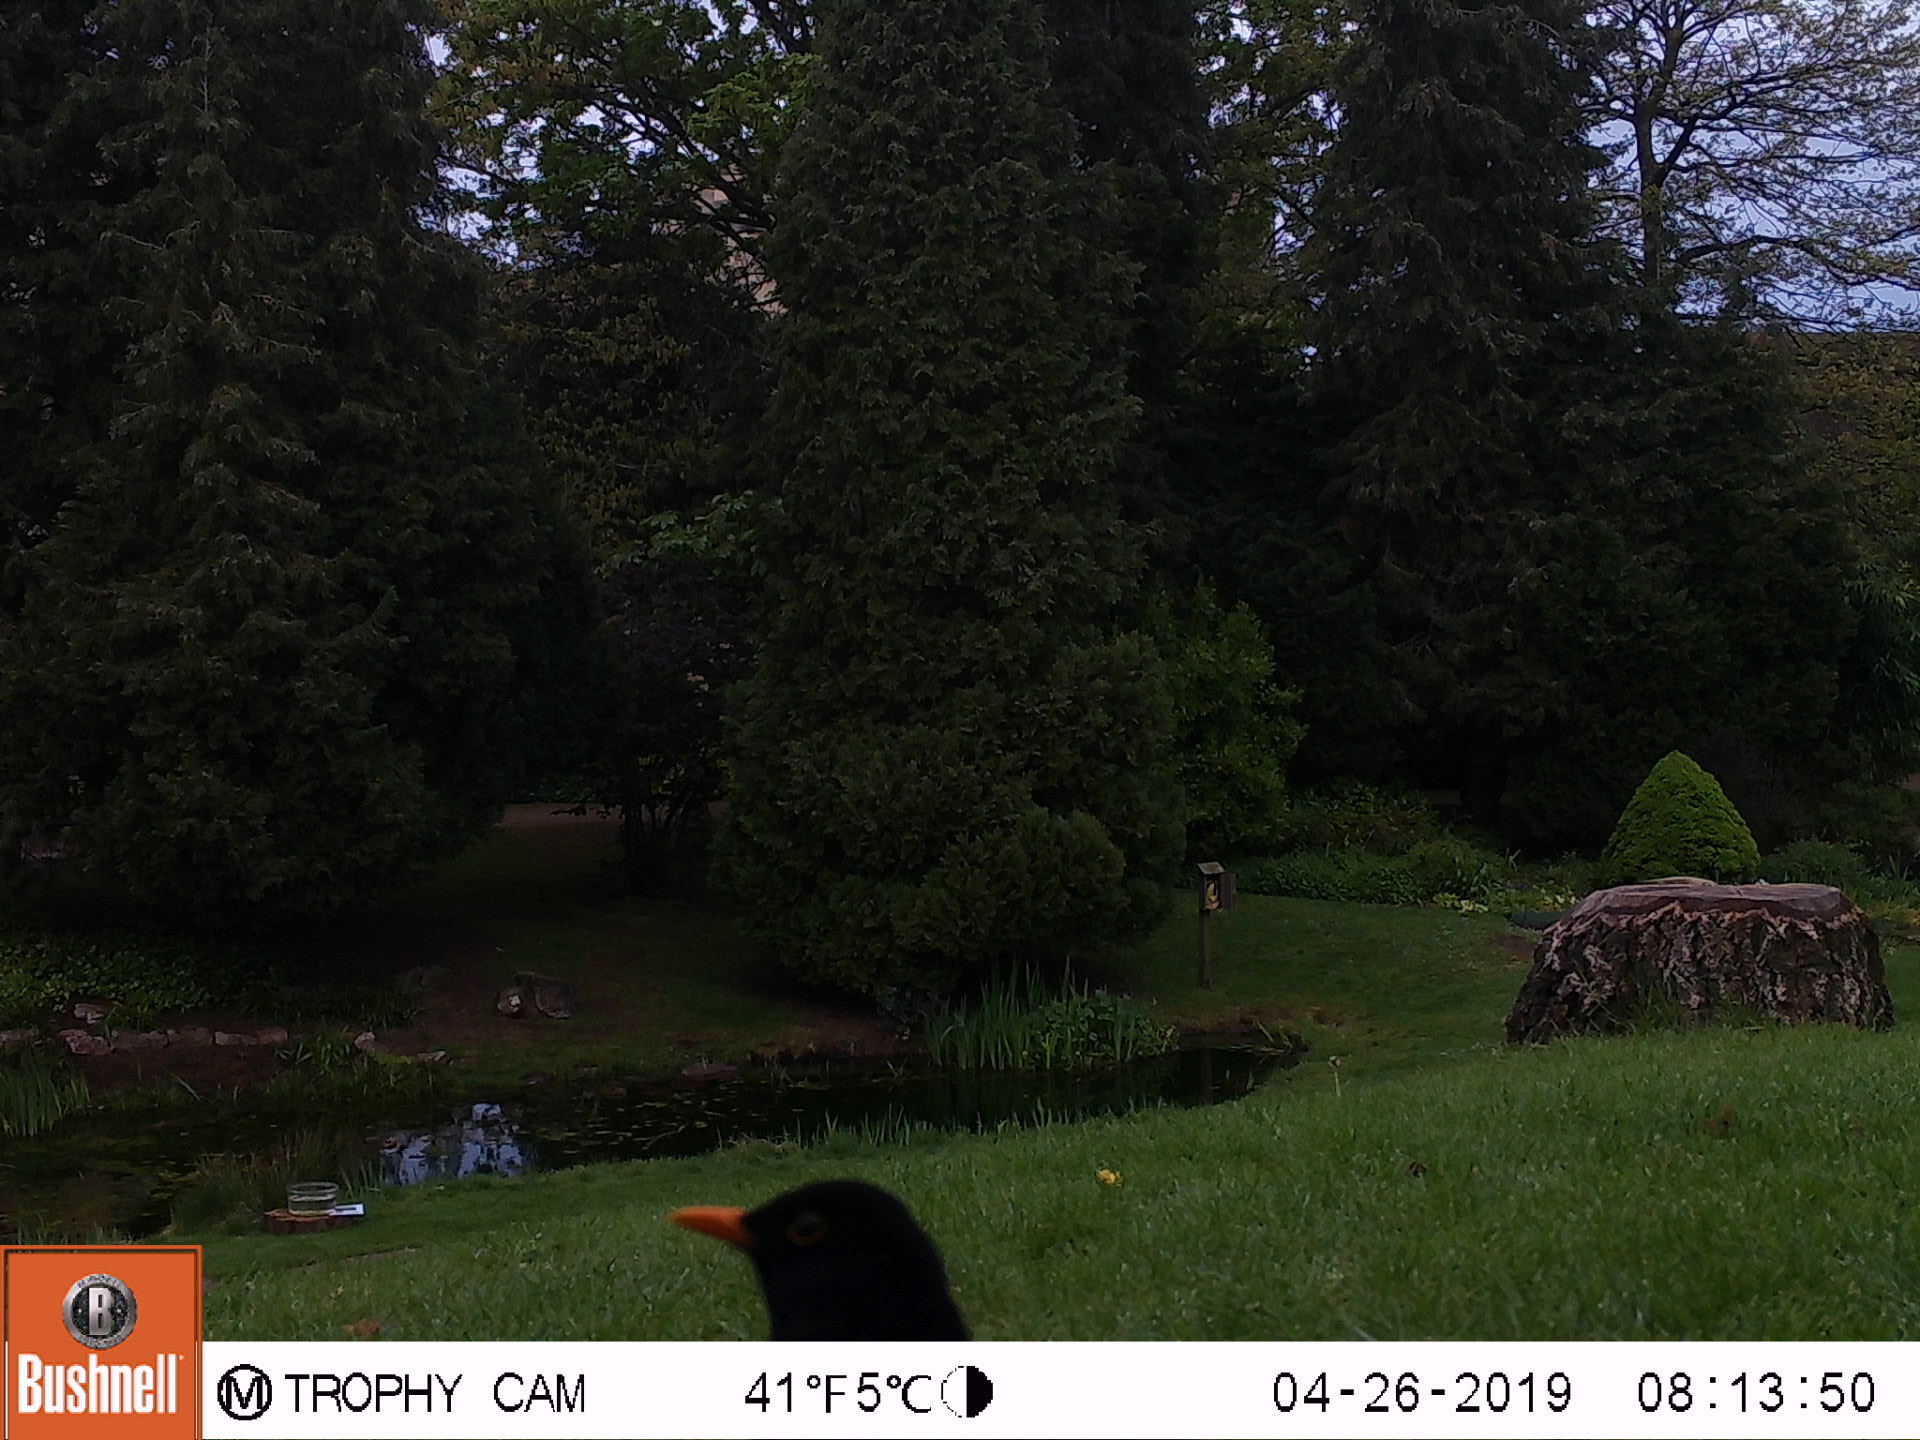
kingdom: Animalia
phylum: Chordata
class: Aves
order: Passeriformes
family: Turdidae
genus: Turdus
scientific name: Turdus merula
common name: Common blackbird
